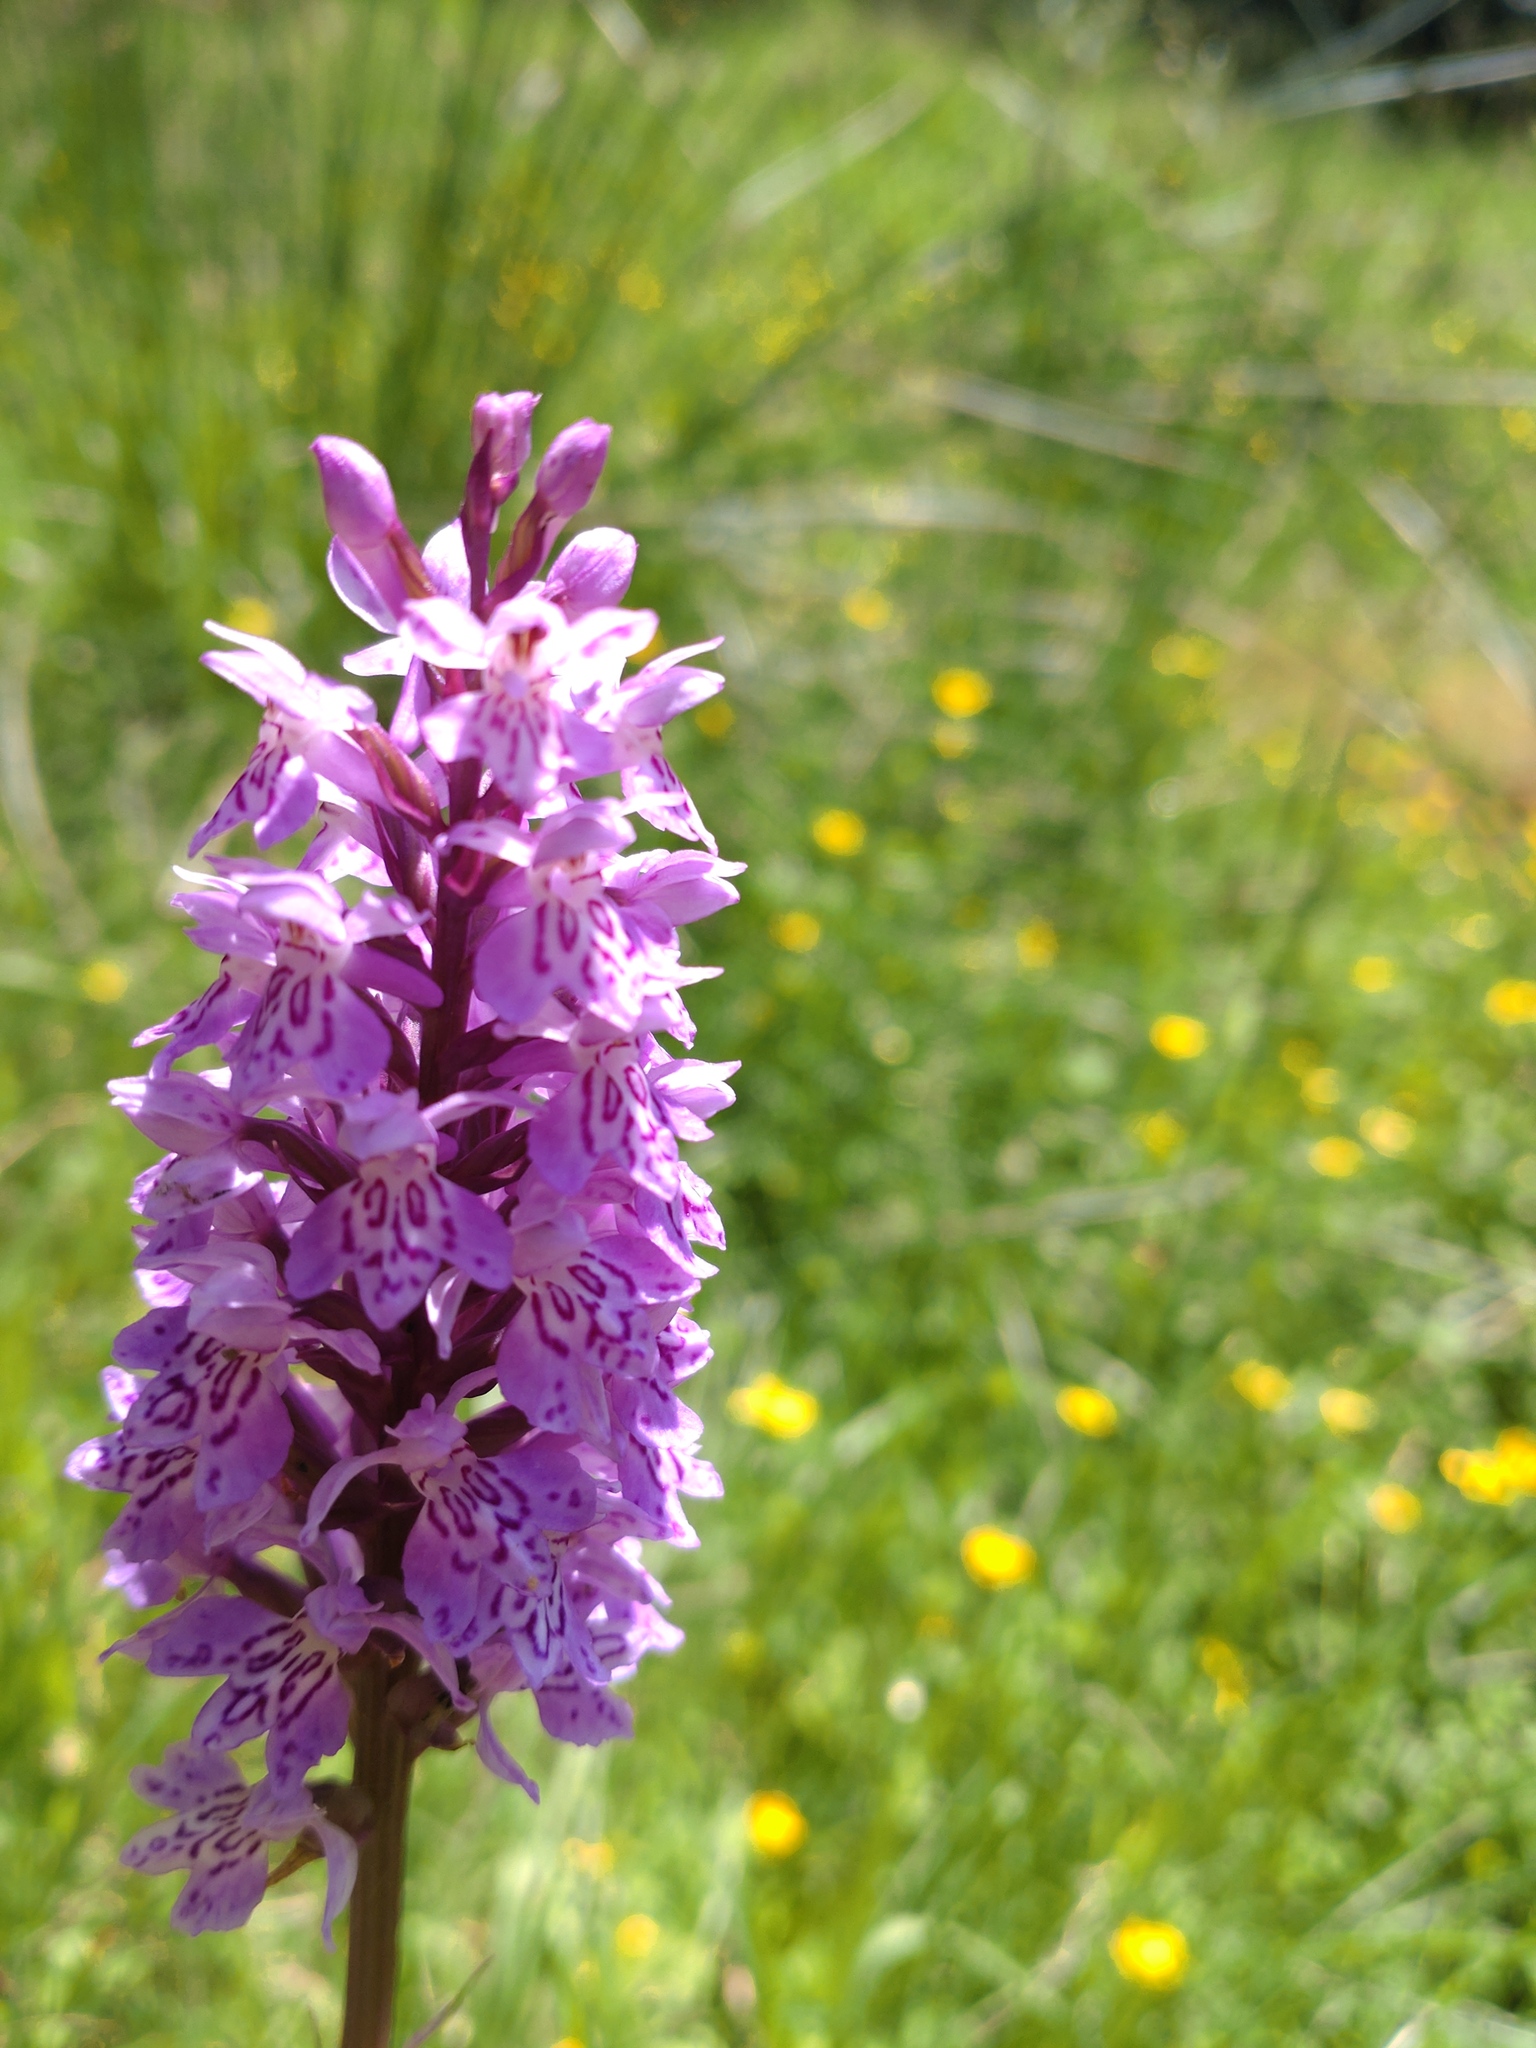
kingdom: Plantae
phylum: Tracheophyta
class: Liliopsida
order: Asparagales
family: Orchidaceae
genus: Dactylorhiza
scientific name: Dactylorhiza maculata
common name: Heath spotted-orchid
